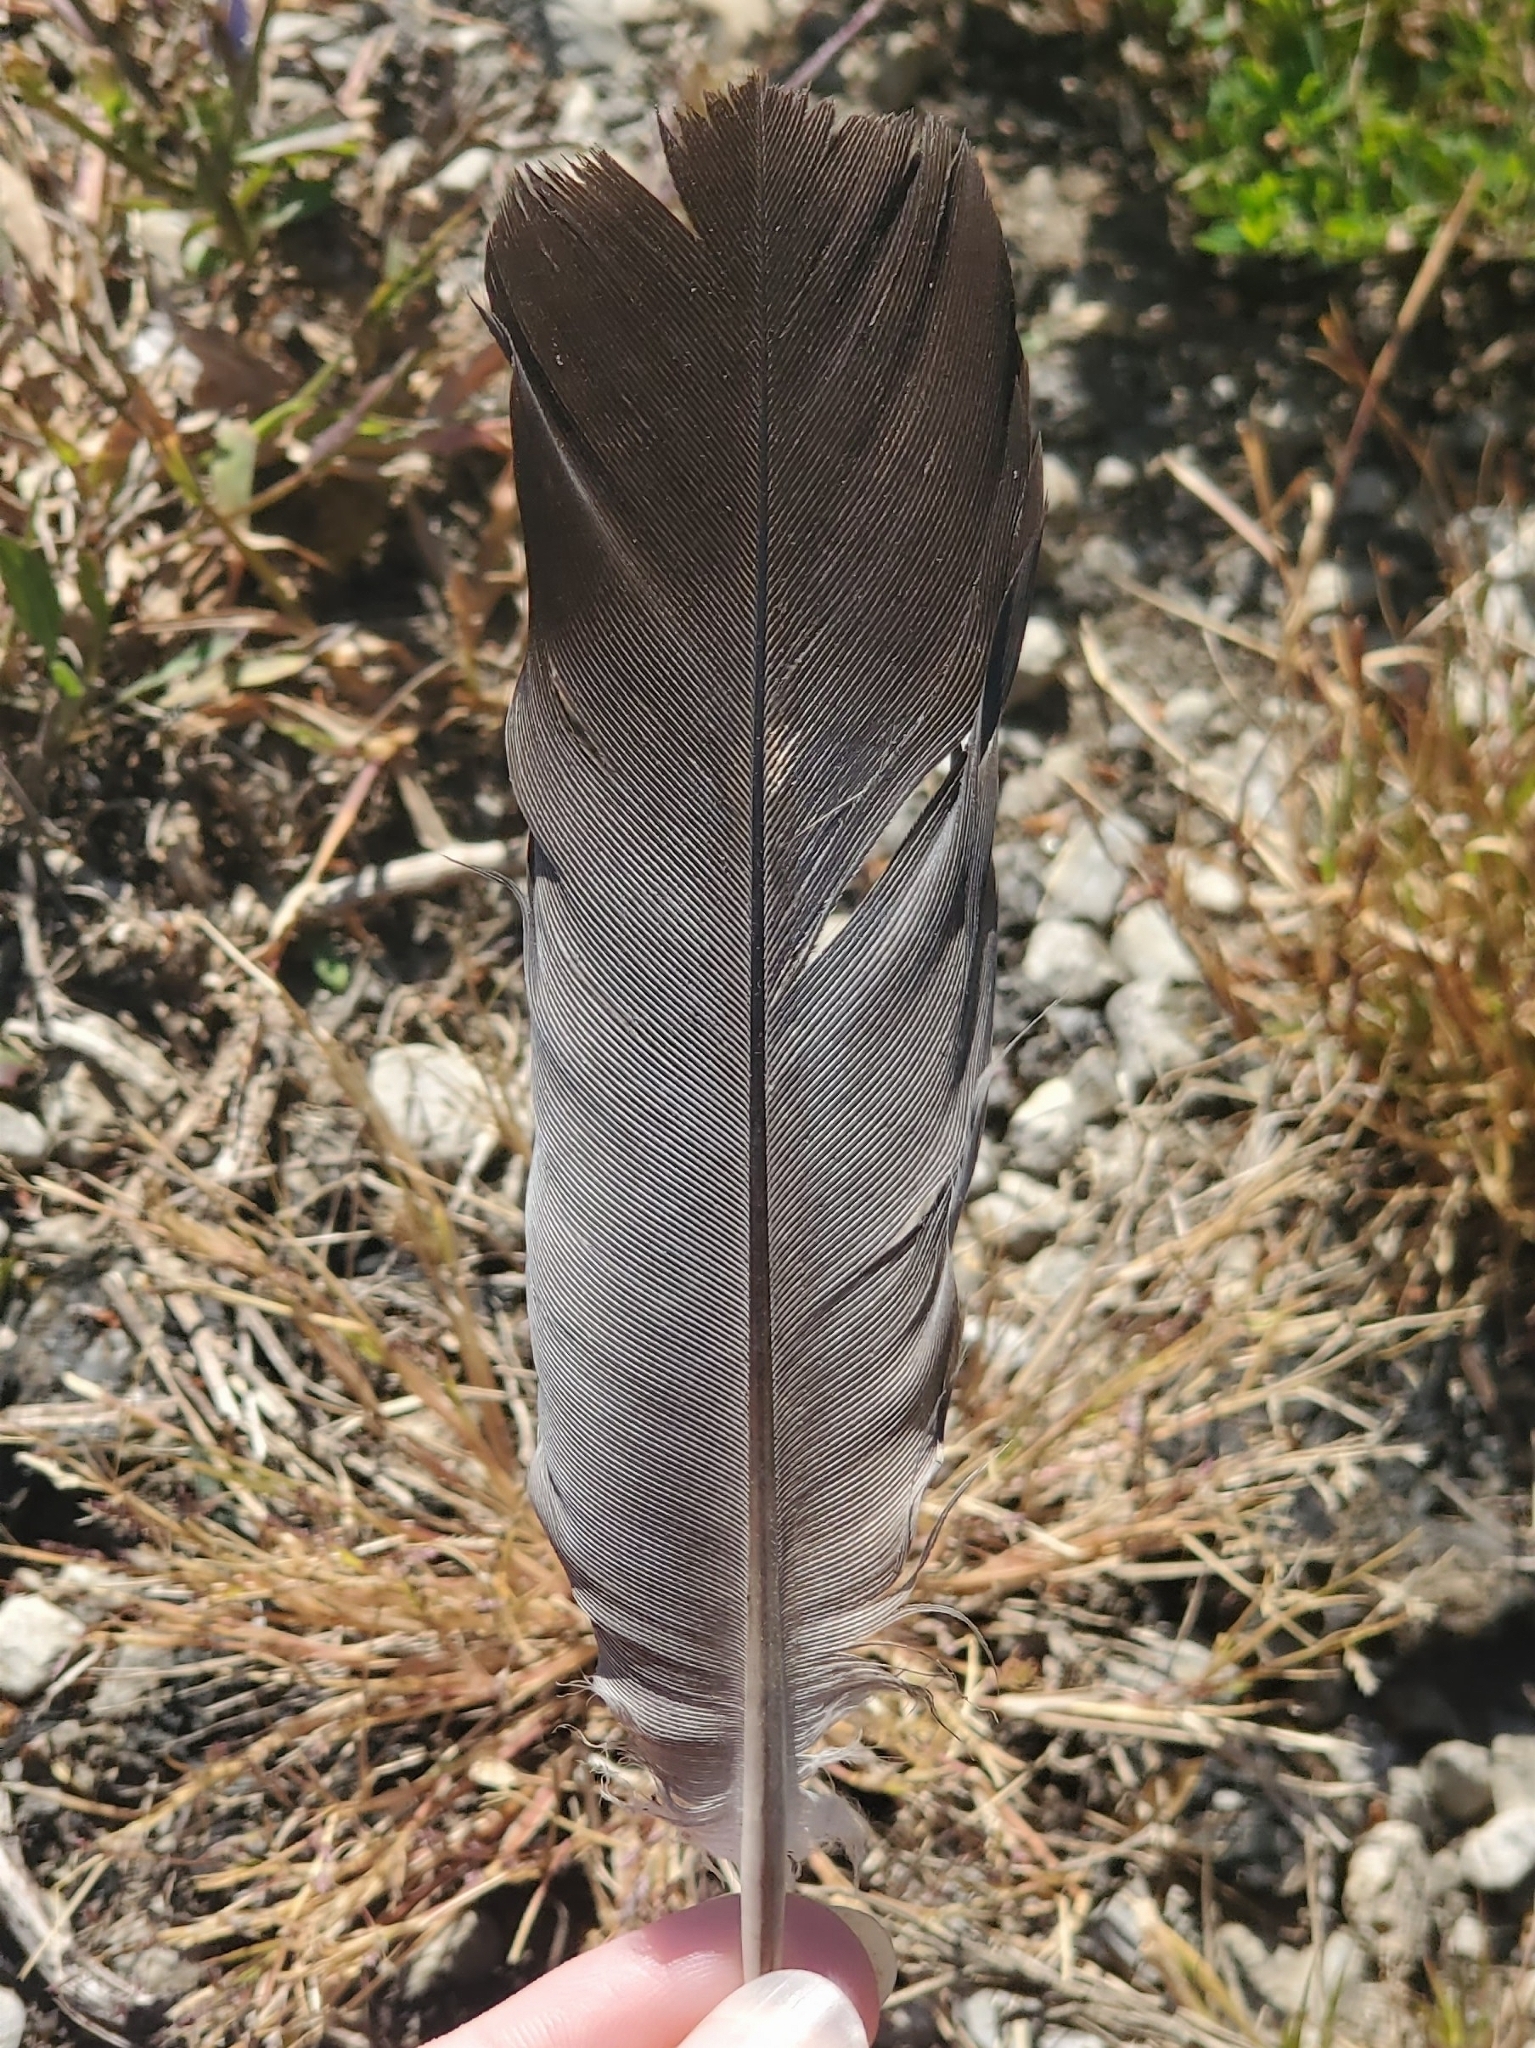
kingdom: Animalia
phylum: Chordata
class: Aves
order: Columbiformes
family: Columbidae
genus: Columba
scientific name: Columba livia
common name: Rock pigeon
